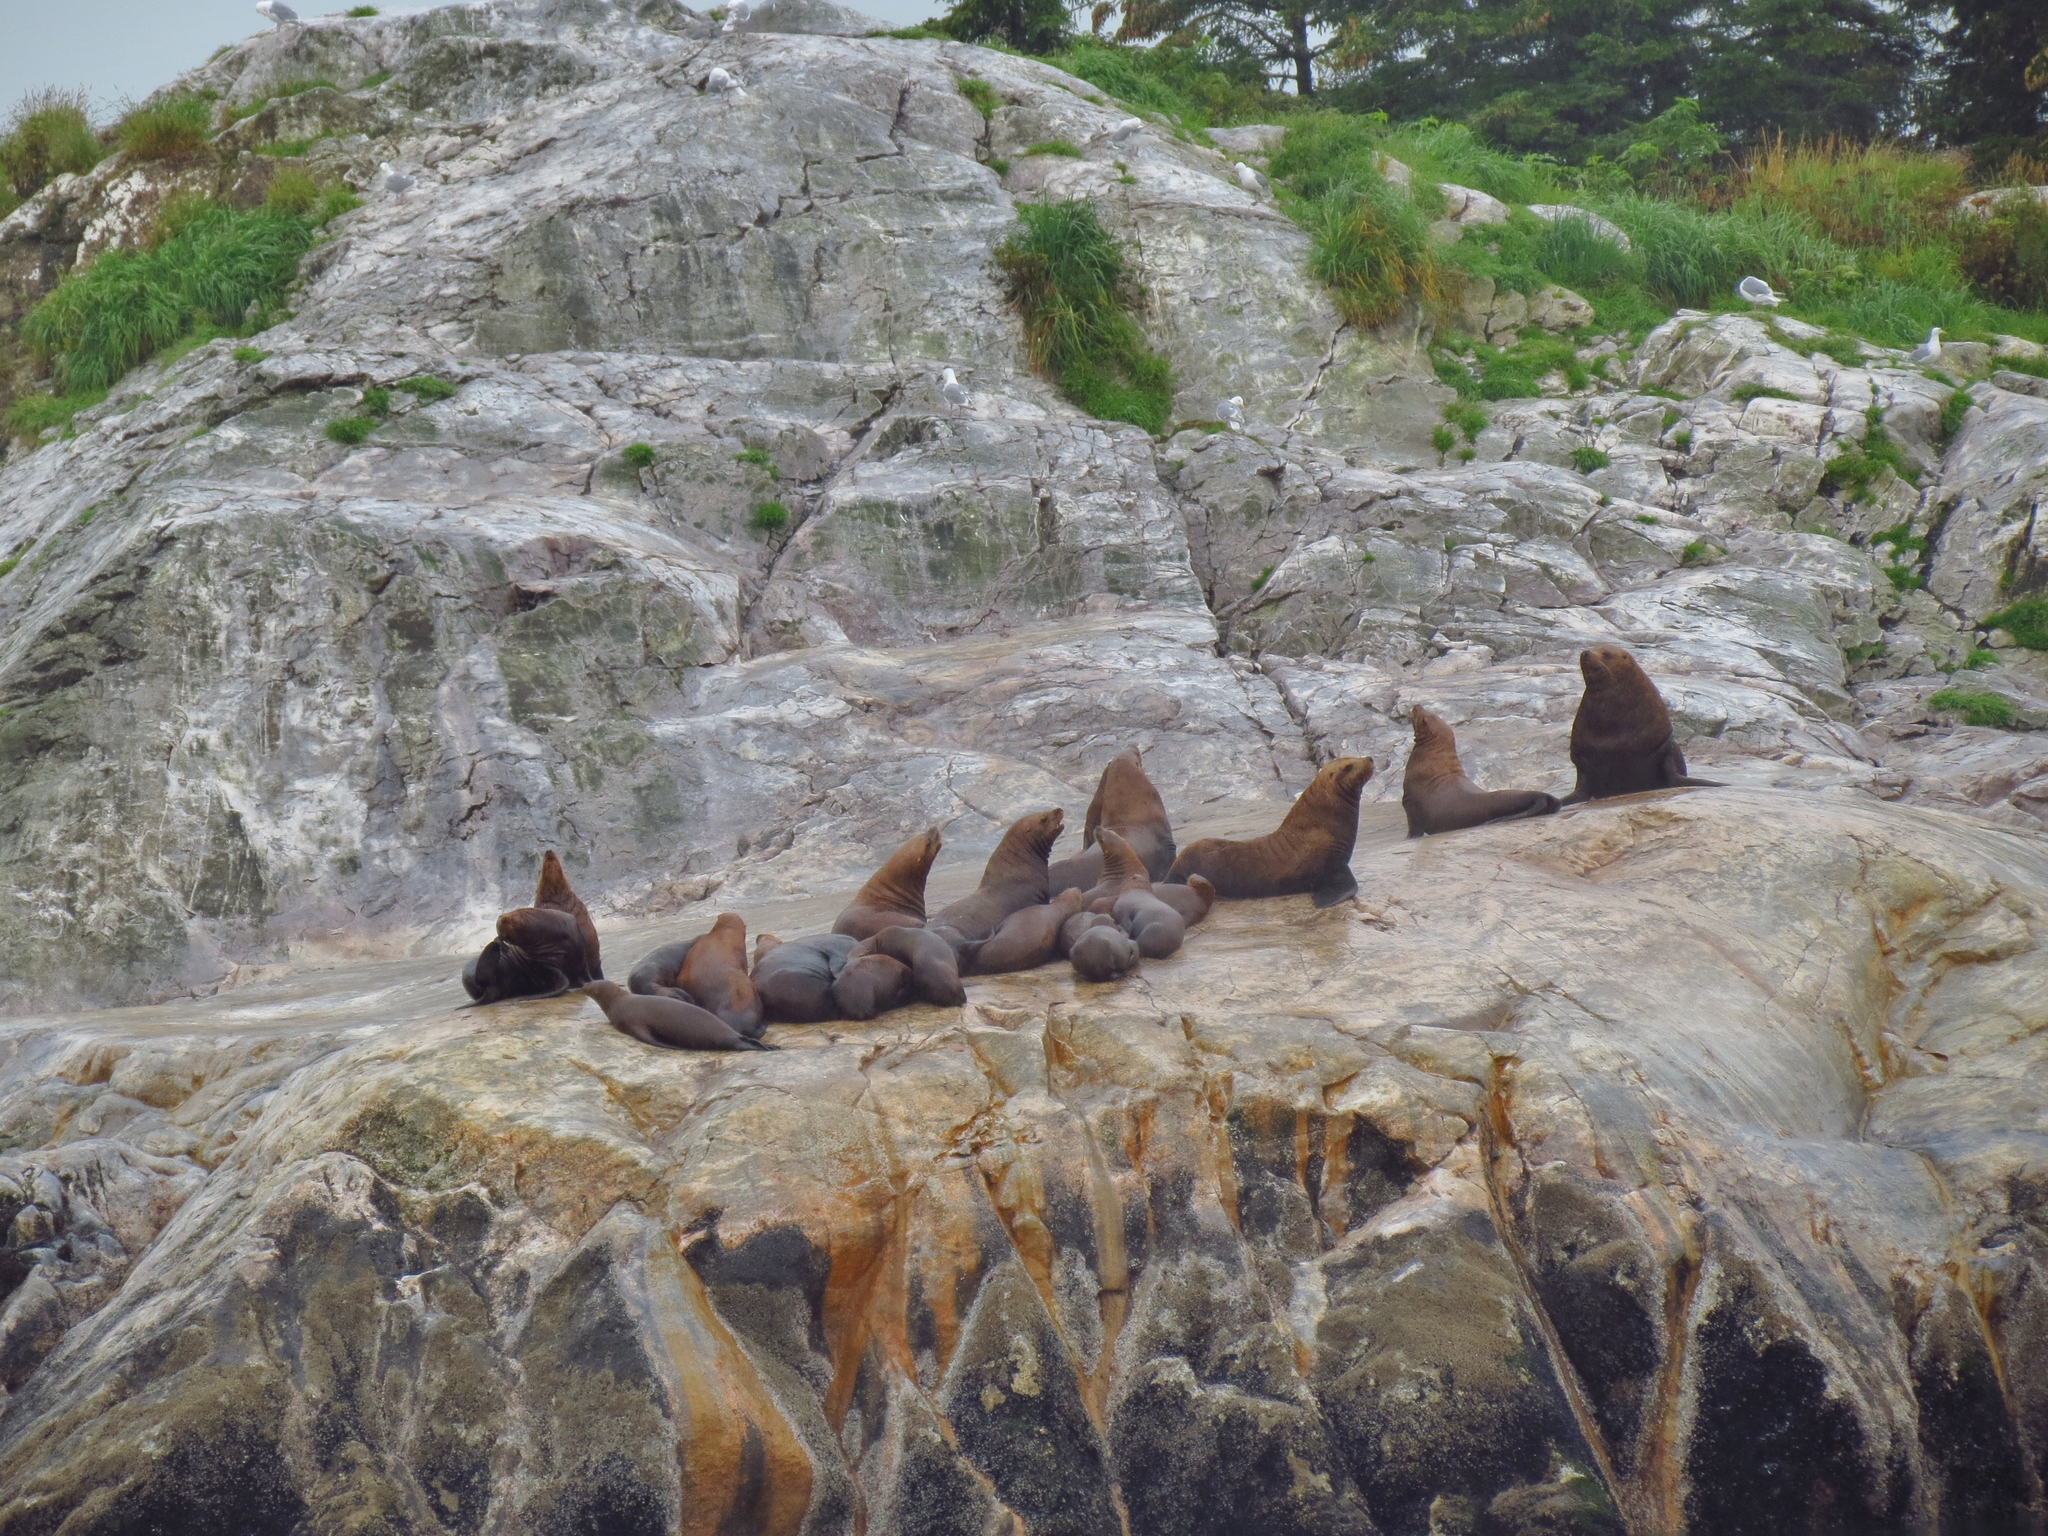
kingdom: Animalia
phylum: Chordata
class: Mammalia
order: Carnivora
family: Otariidae
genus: Eumetopias
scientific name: Eumetopias jubatus
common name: Steller sea lion
